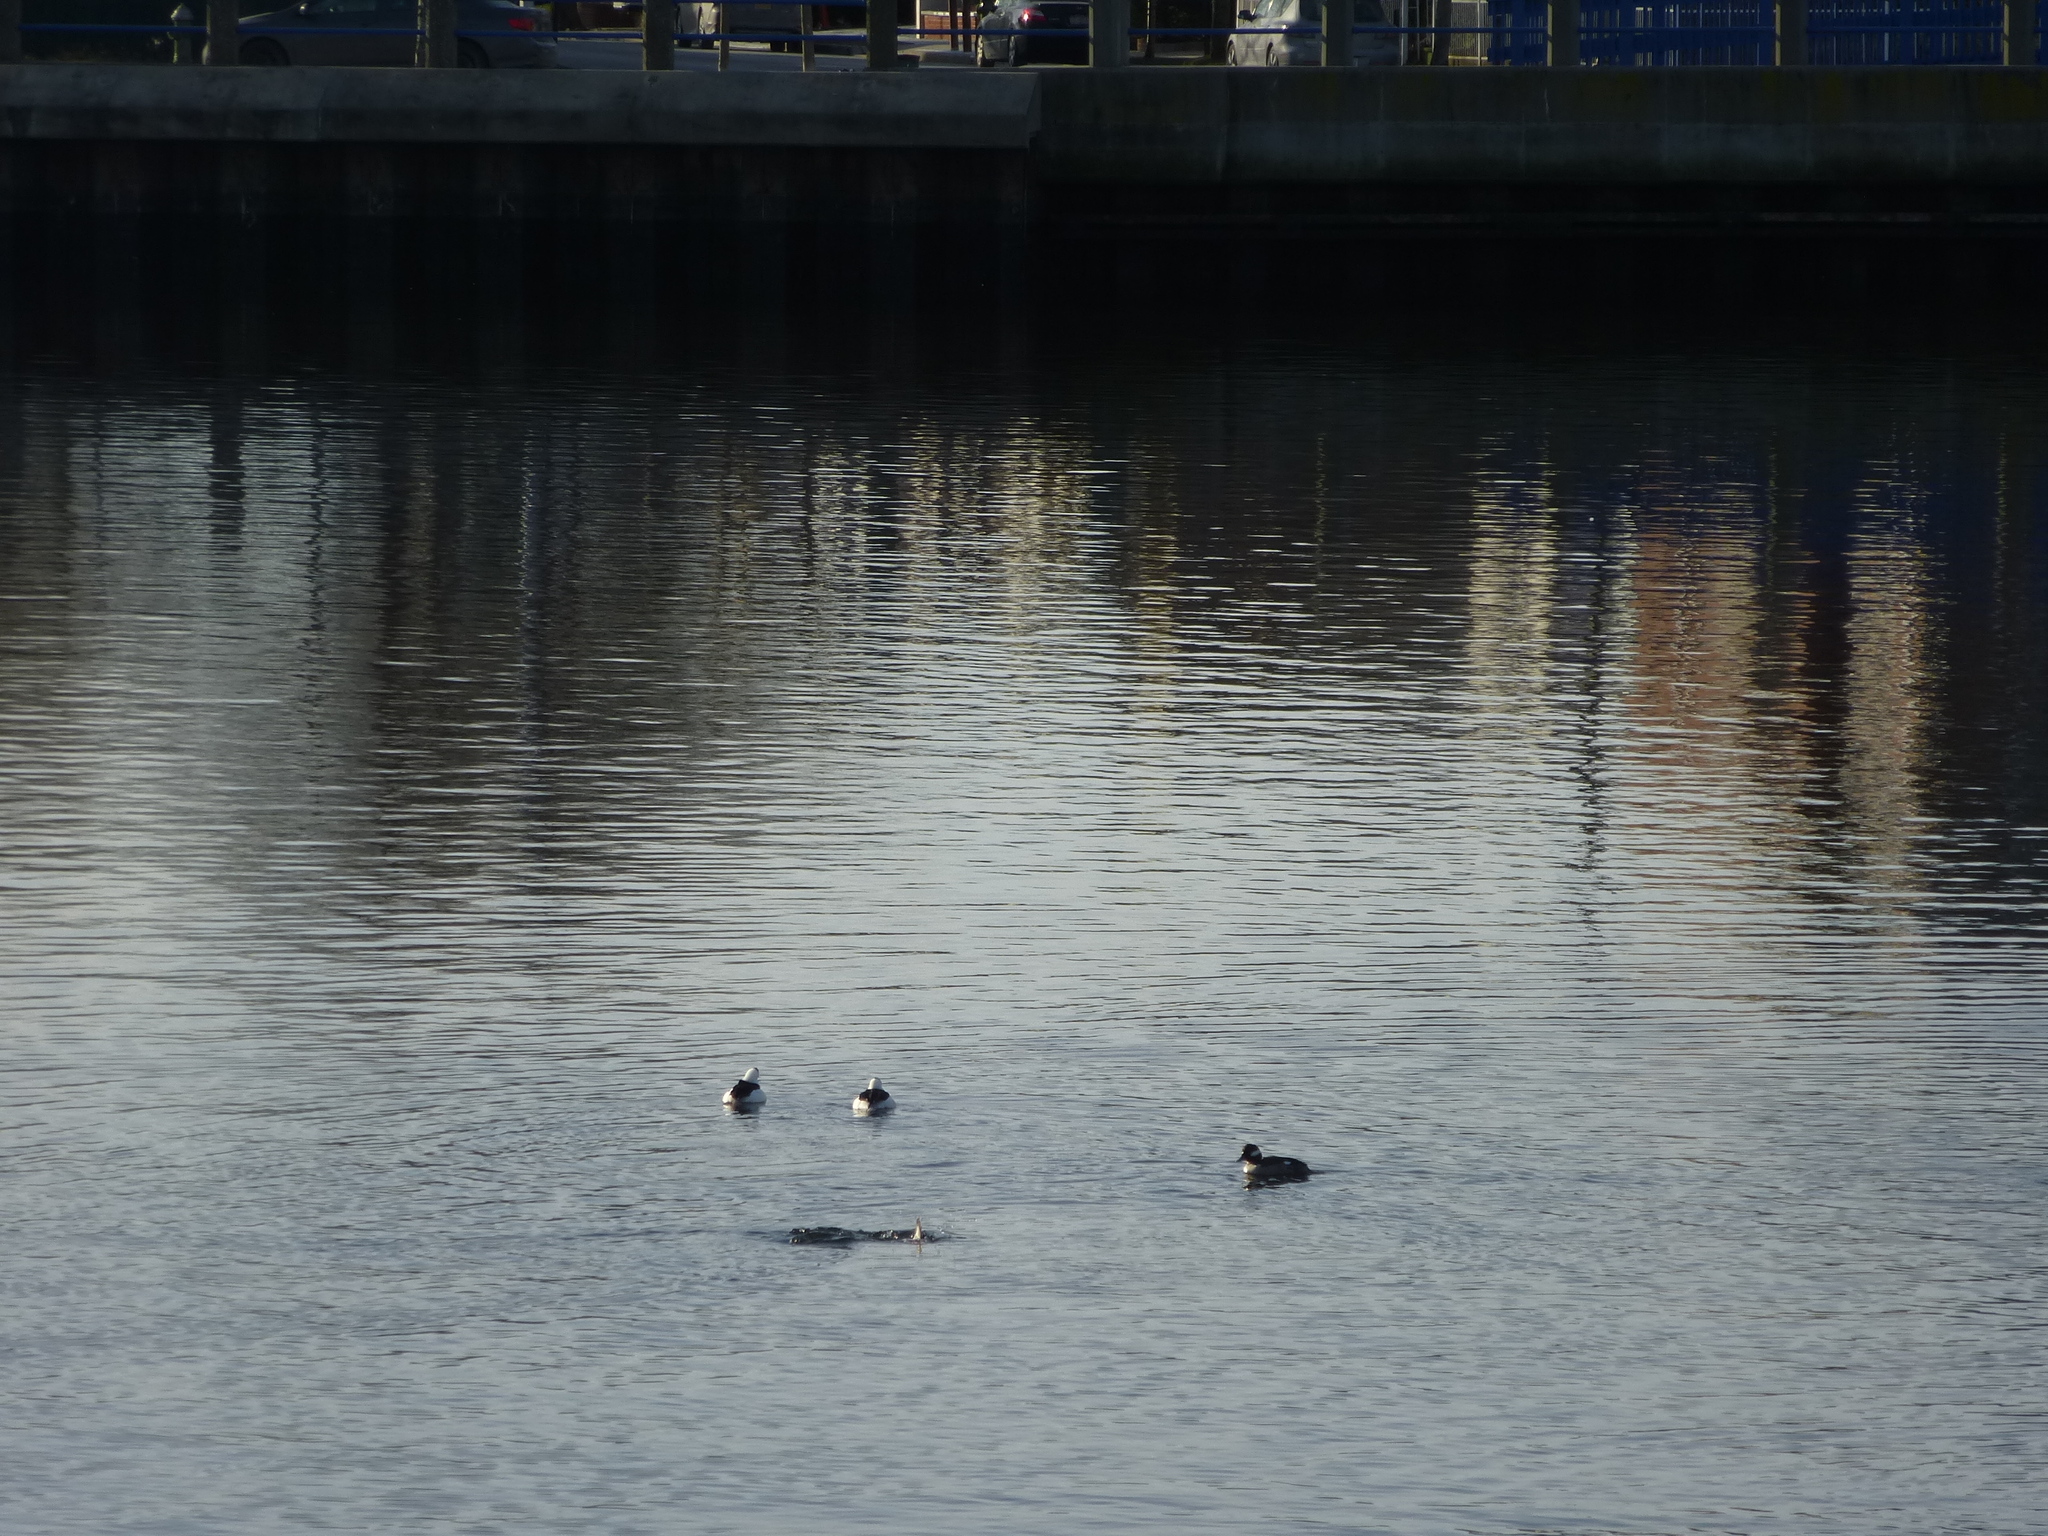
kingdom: Animalia
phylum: Chordata
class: Aves
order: Anseriformes
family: Anatidae
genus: Bucephala
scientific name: Bucephala albeola
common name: Bufflehead
